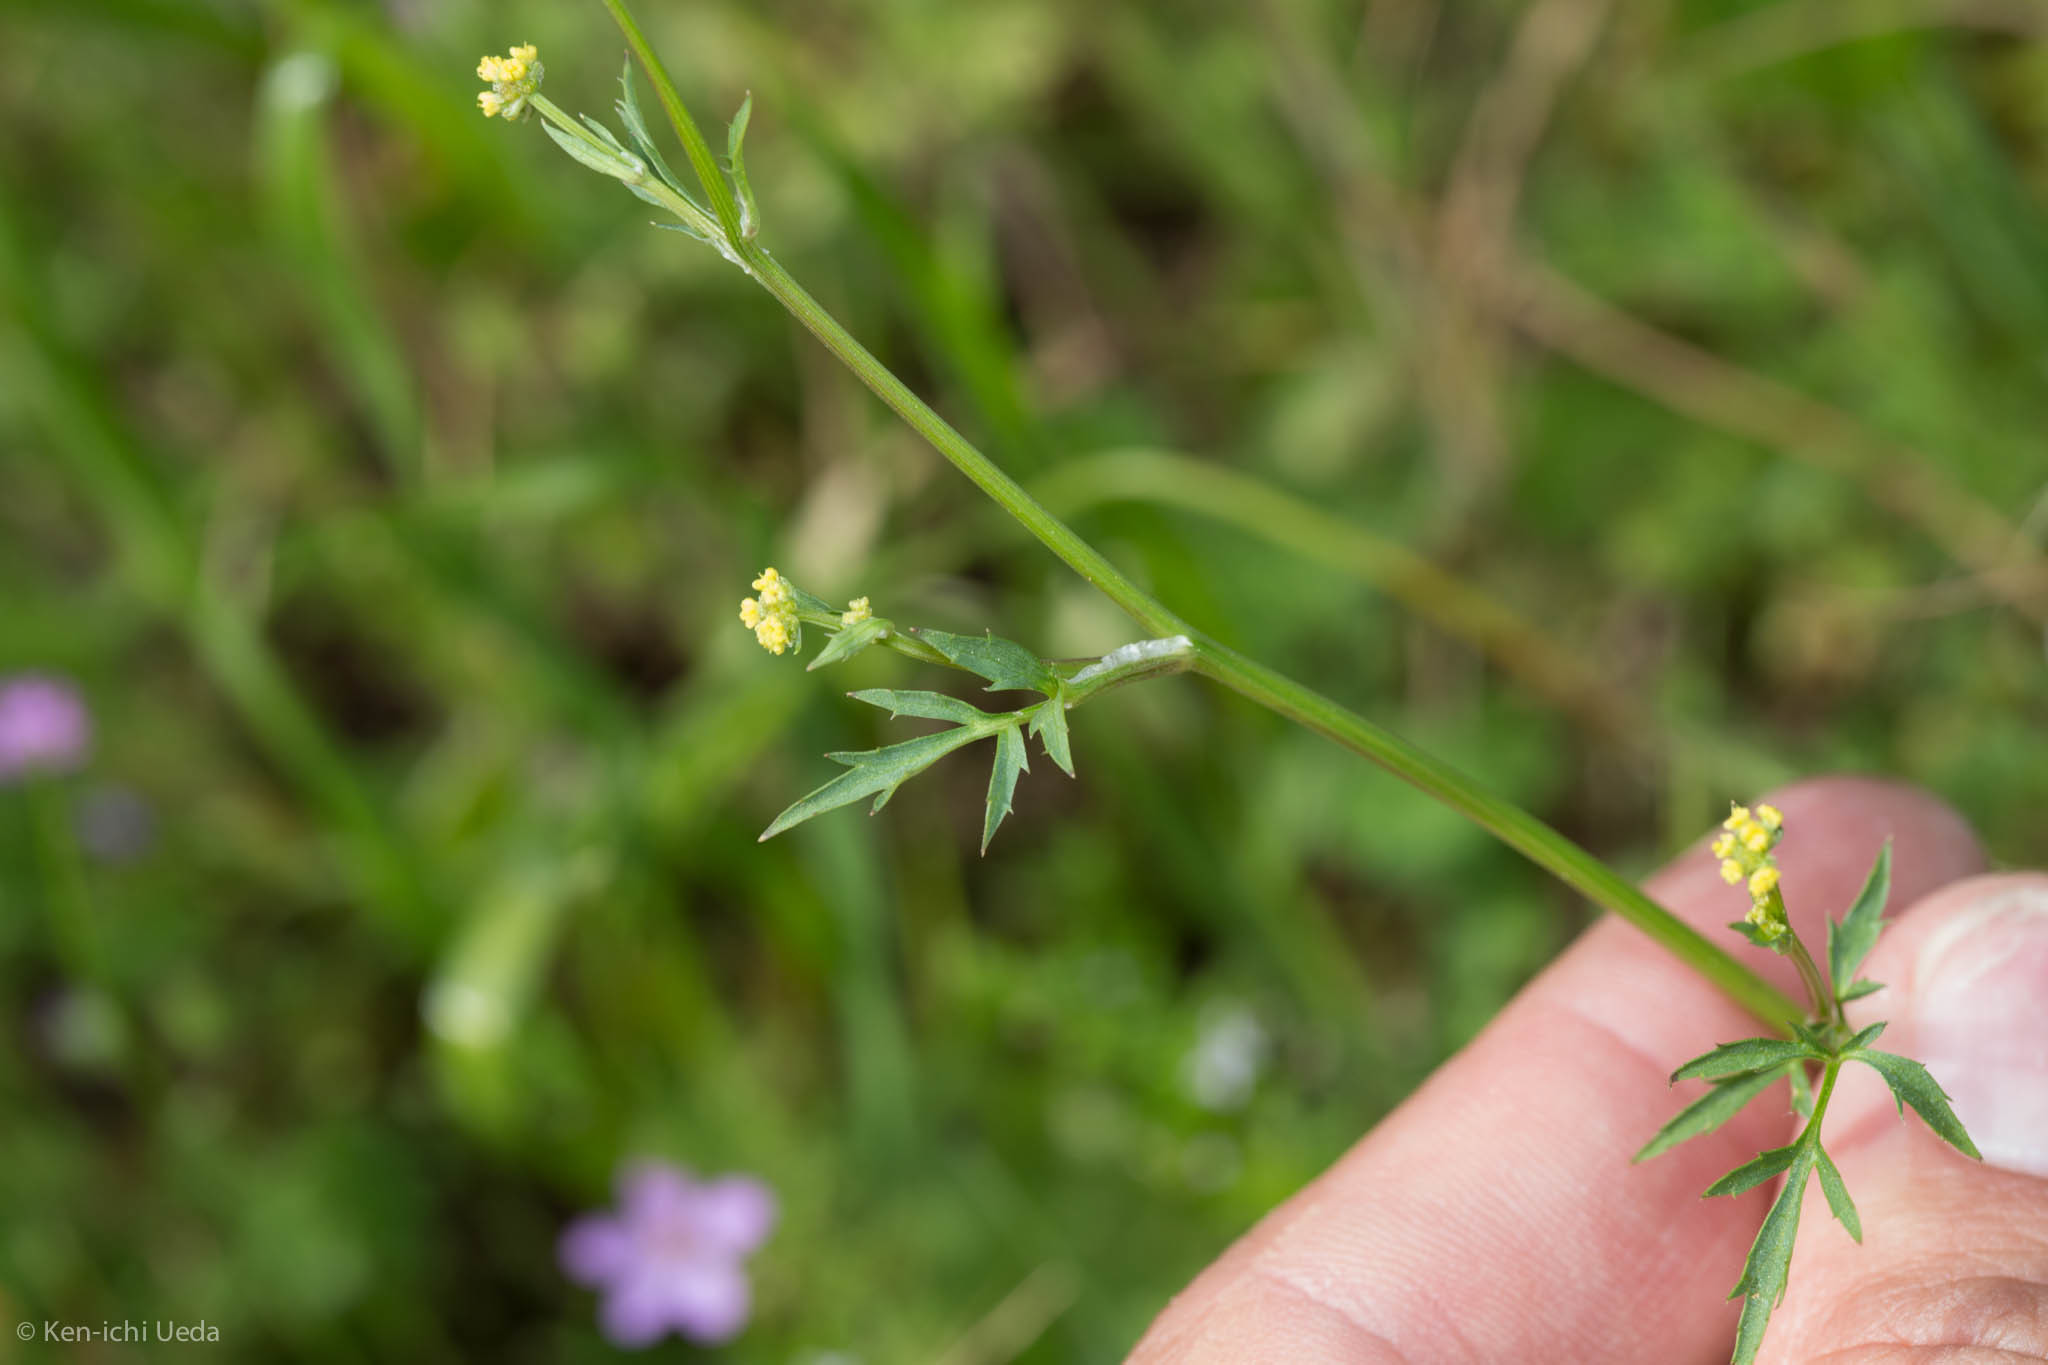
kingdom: Plantae
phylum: Tracheophyta
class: Magnoliopsida
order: Apiales
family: Apiaceae
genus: Sanicula
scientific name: Sanicula bipinnata
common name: Poison sanicle
